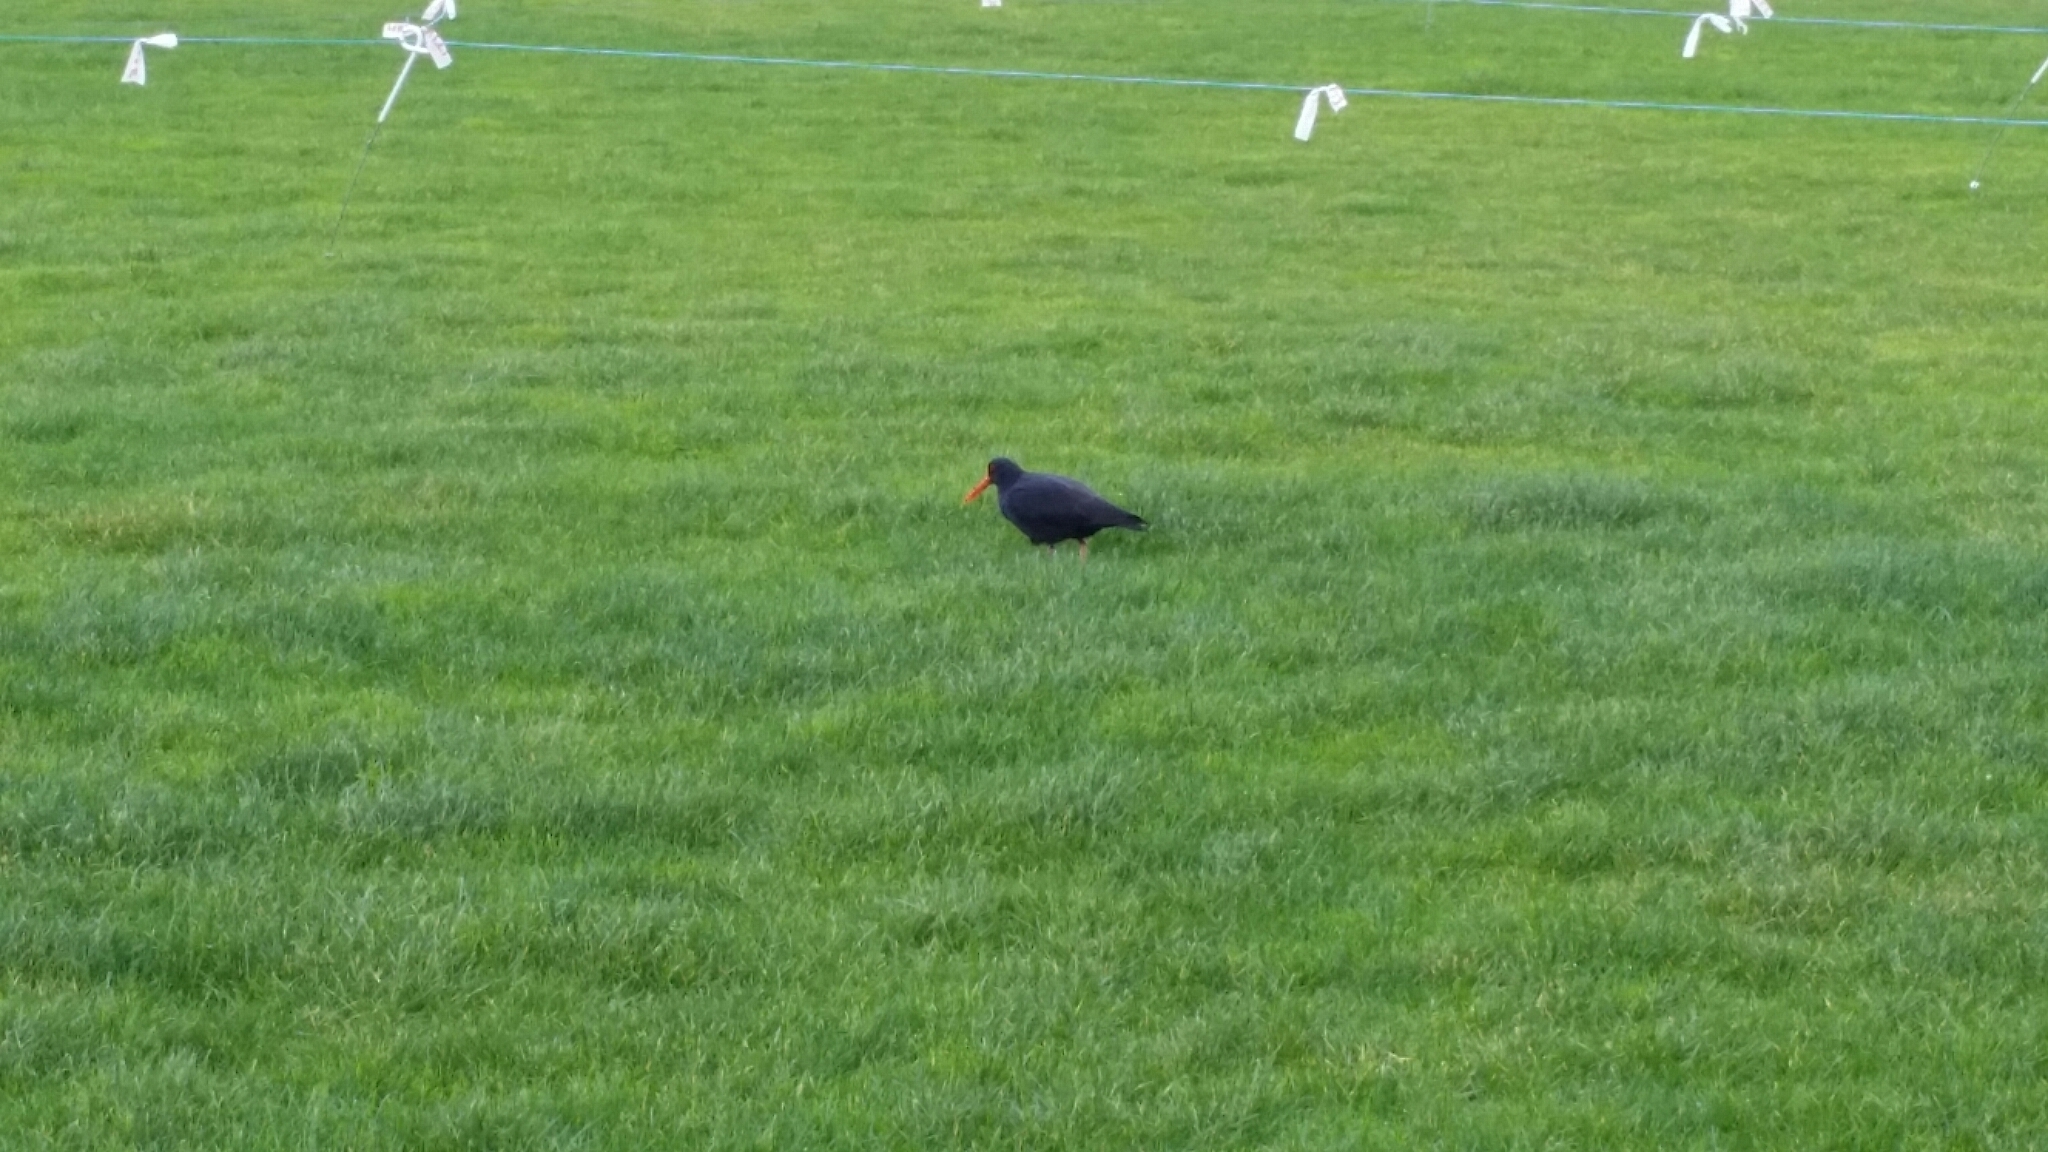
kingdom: Animalia
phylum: Chordata
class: Aves
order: Charadriiformes
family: Haematopodidae
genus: Haematopus
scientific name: Haematopus unicolor
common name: Variable oystercatcher
